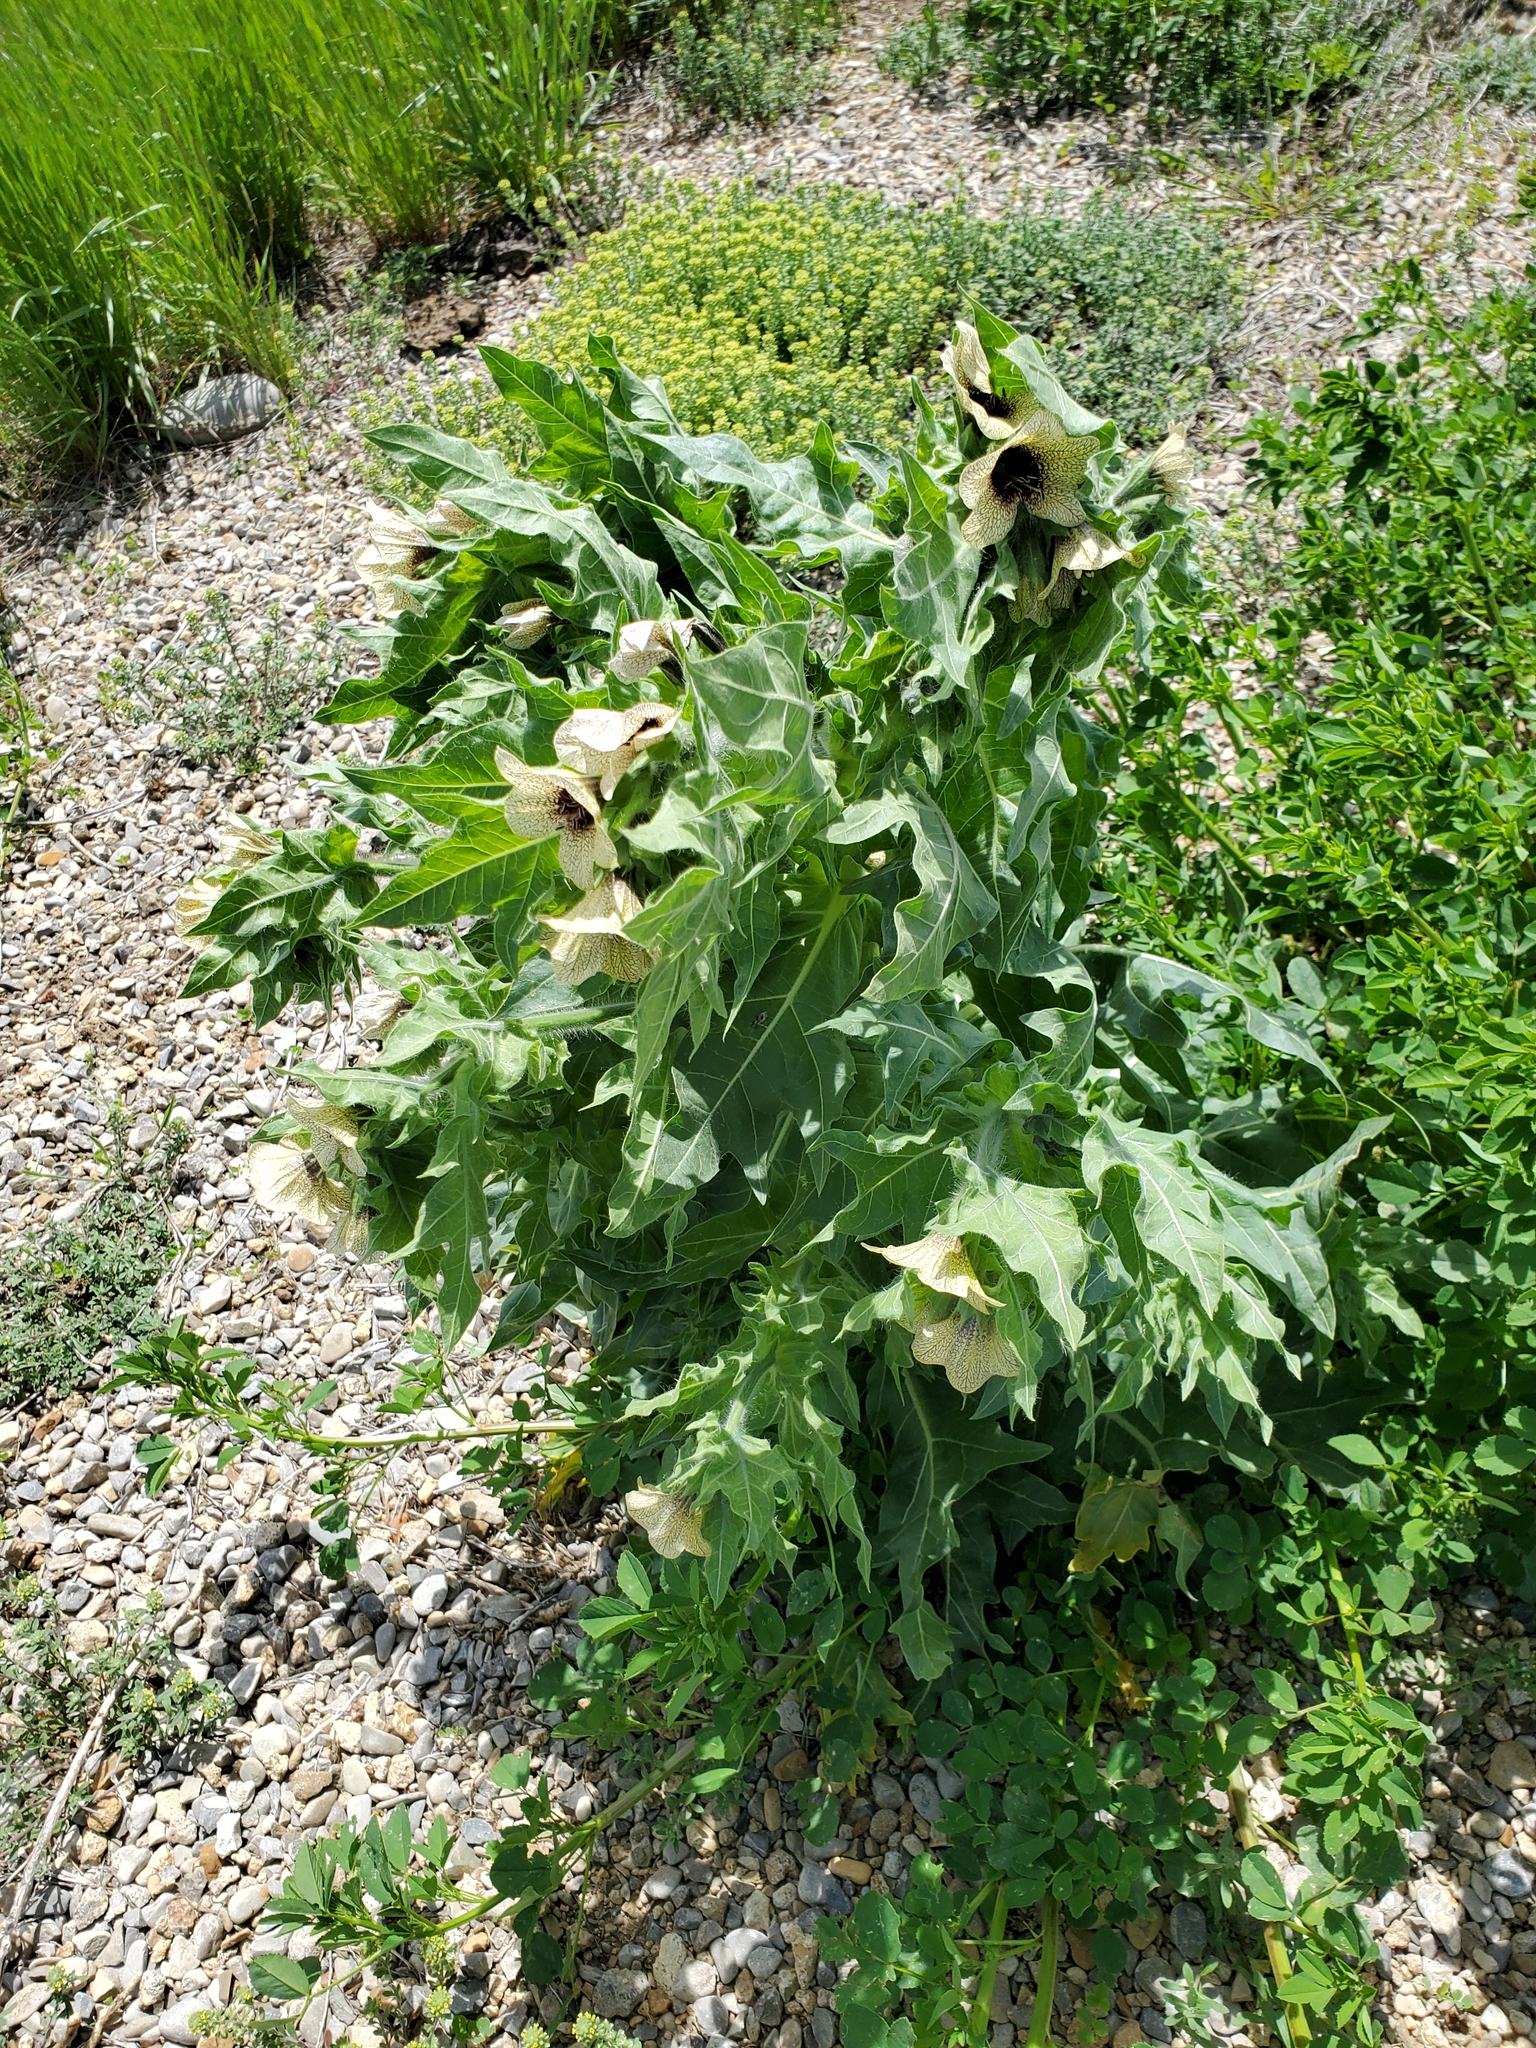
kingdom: Plantae
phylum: Tracheophyta
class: Magnoliopsida
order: Solanales
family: Solanaceae
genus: Hyoscyamus
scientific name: Hyoscyamus niger
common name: Henbane
